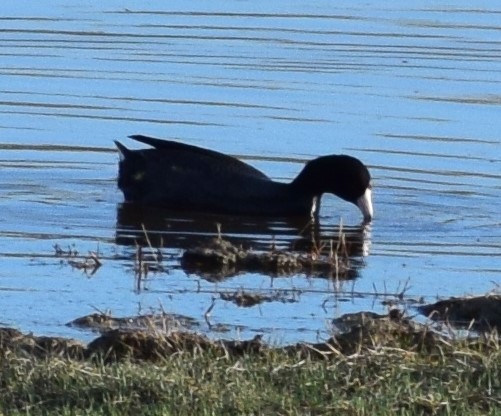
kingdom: Animalia
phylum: Chordata
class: Aves
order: Gruiformes
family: Rallidae
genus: Fulica
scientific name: Fulica americana
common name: American coot
